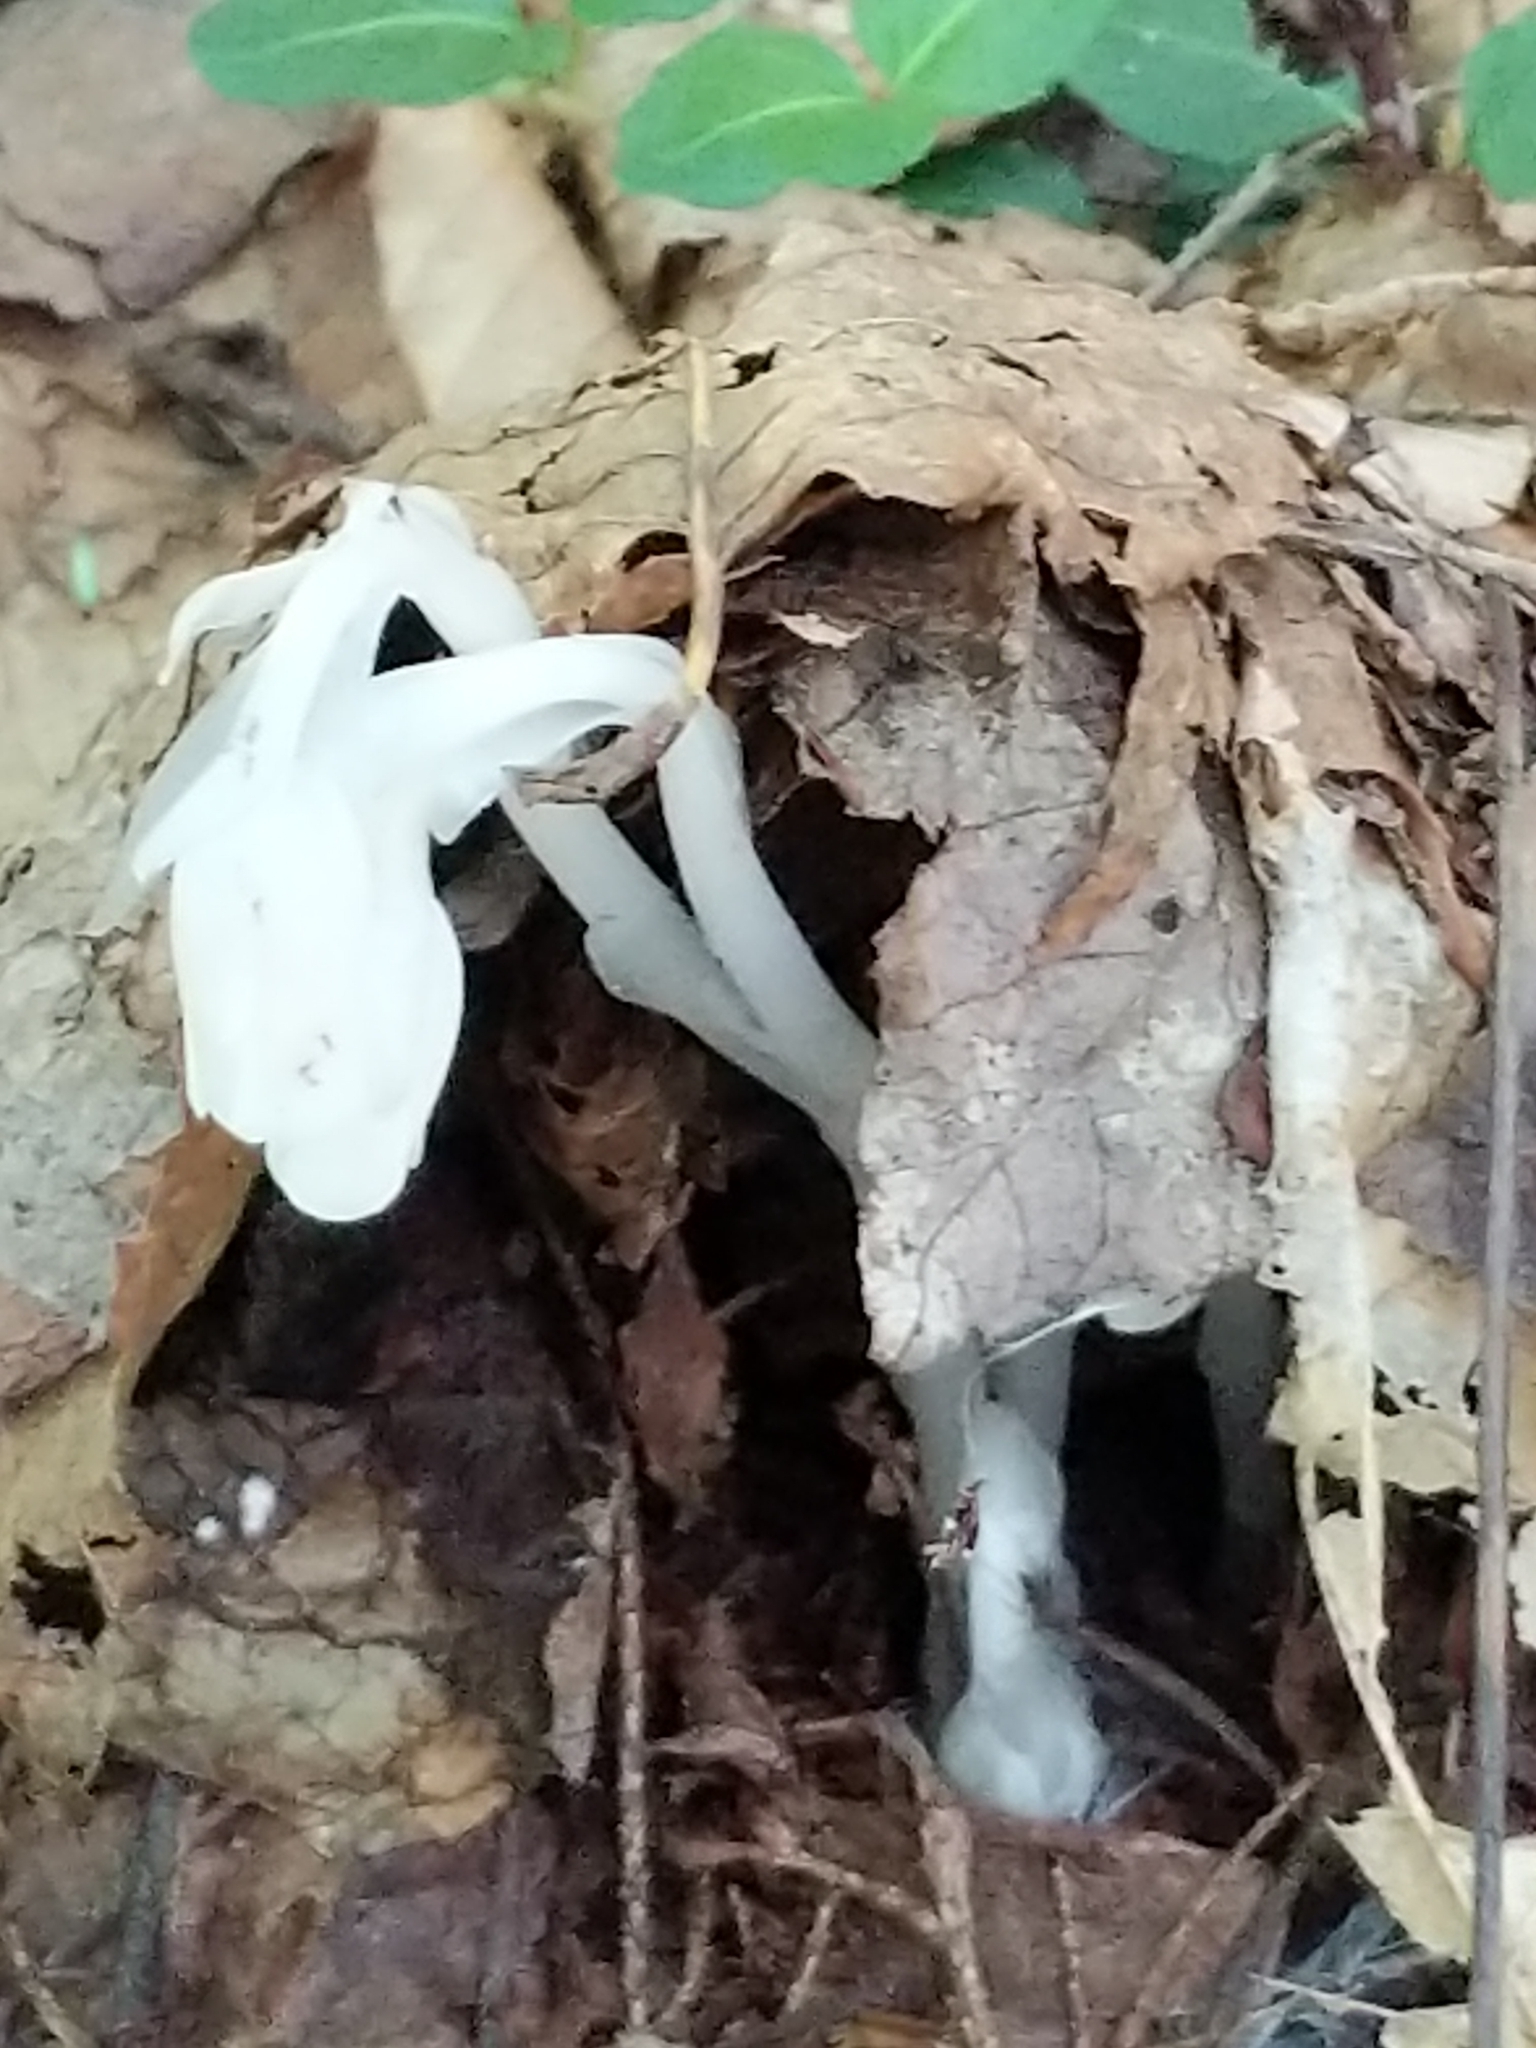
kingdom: Plantae
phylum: Tracheophyta
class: Magnoliopsida
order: Ericales
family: Ericaceae
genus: Monotropa
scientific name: Monotropa uniflora
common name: Convulsion root
